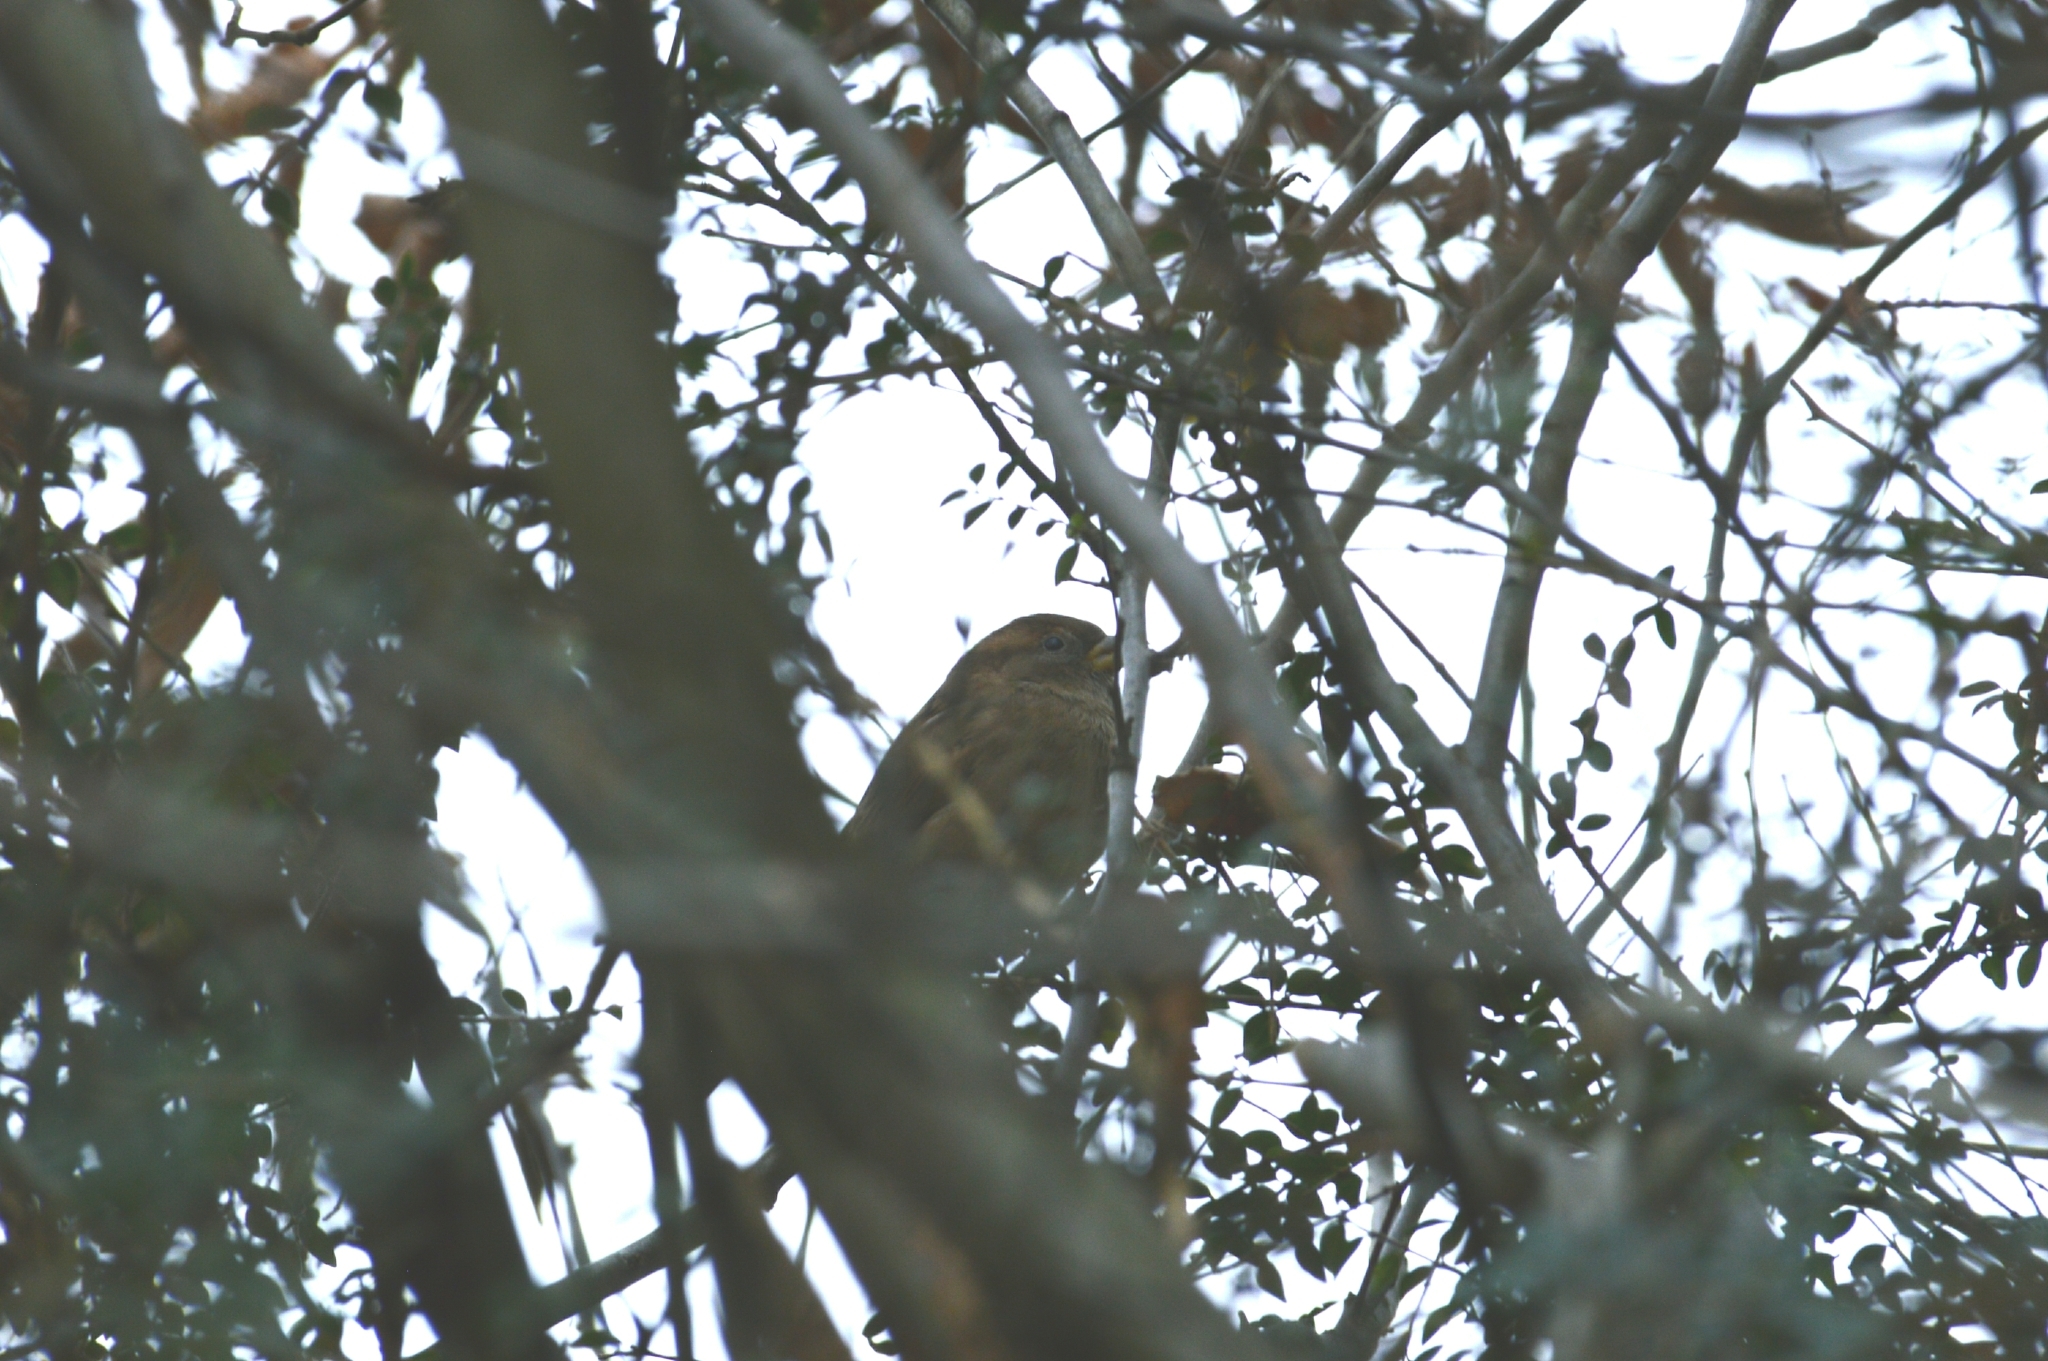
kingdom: Animalia
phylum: Chordata
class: Aves
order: Passeriformes
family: Passeridae
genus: Passer
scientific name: Passer domesticus
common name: House sparrow
